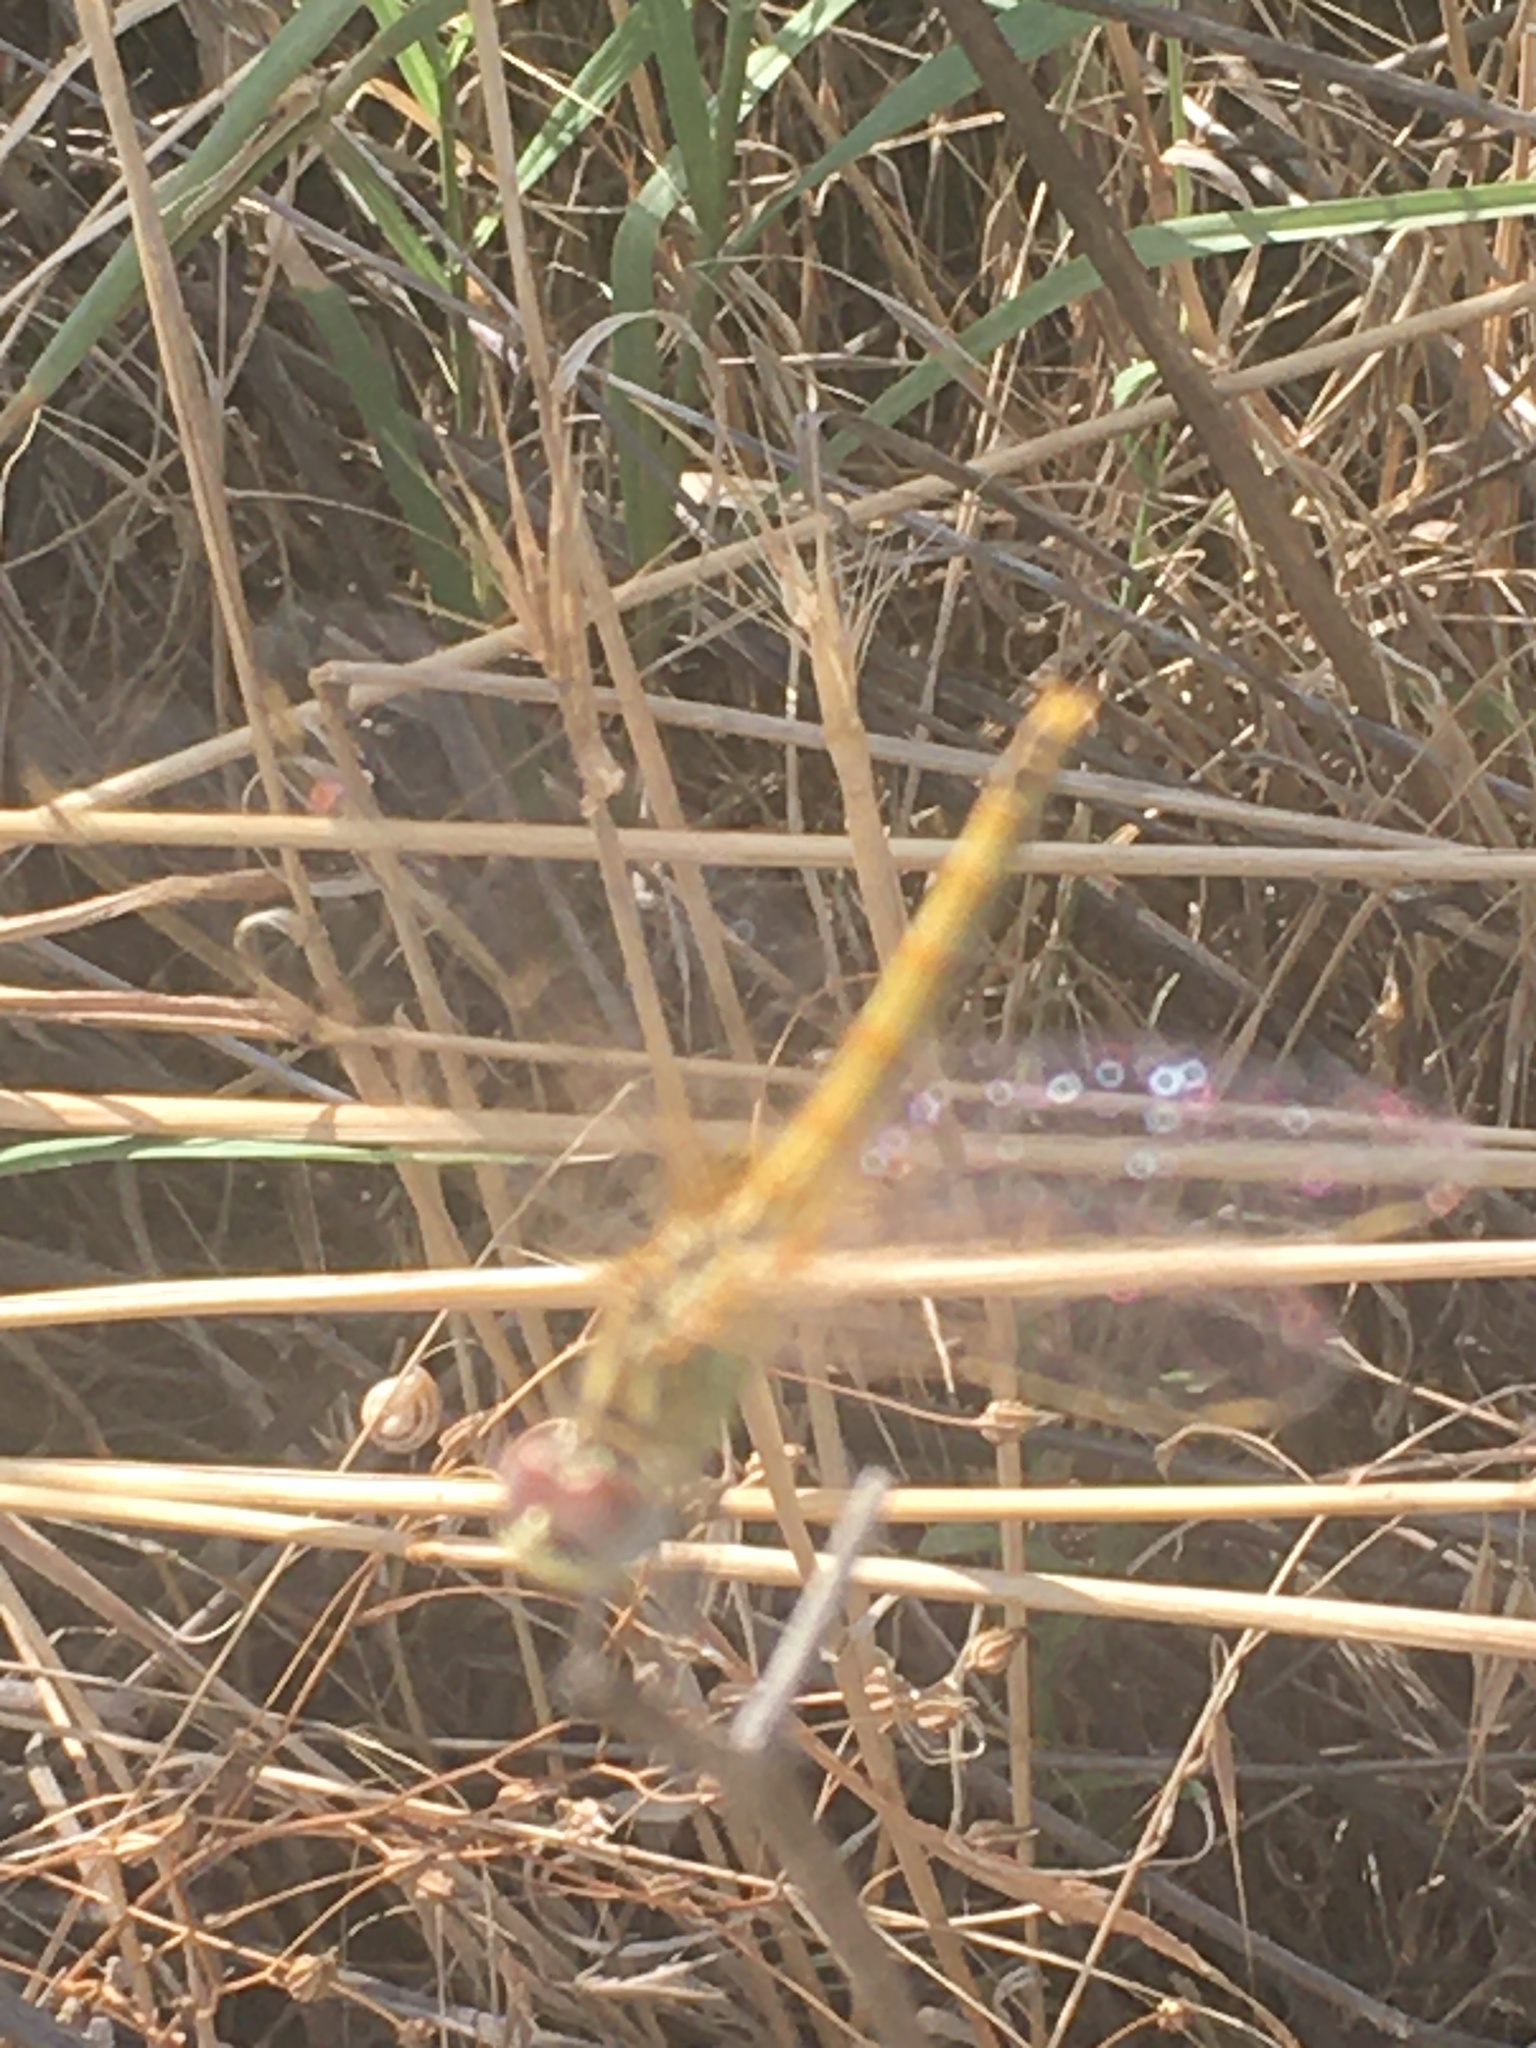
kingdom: Animalia
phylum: Arthropoda
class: Insecta
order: Odonata
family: Libellulidae
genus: Sympetrum
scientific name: Sympetrum fonscolombii
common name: Red-veined darter
